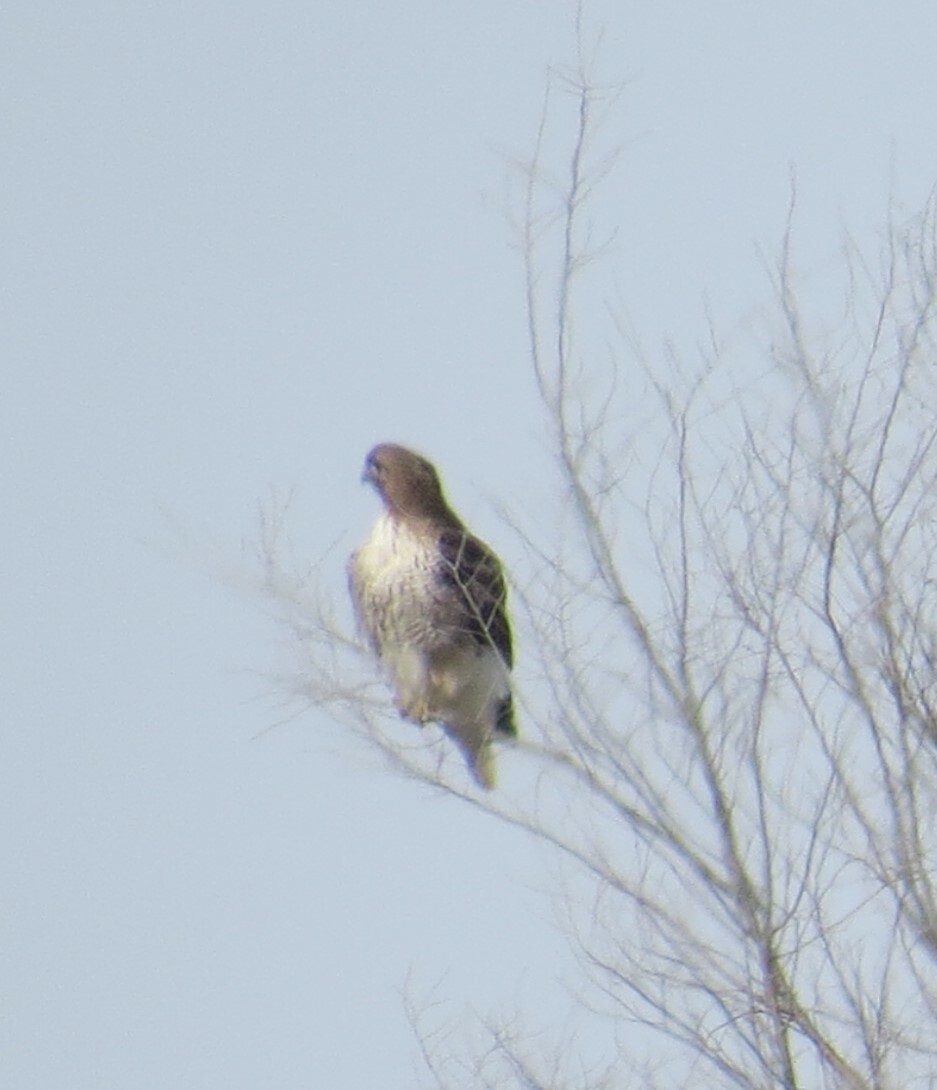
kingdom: Animalia
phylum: Chordata
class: Aves
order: Accipitriformes
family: Accipitridae
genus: Buteo
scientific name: Buteo jamaicensis
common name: Red-tailed hawk
